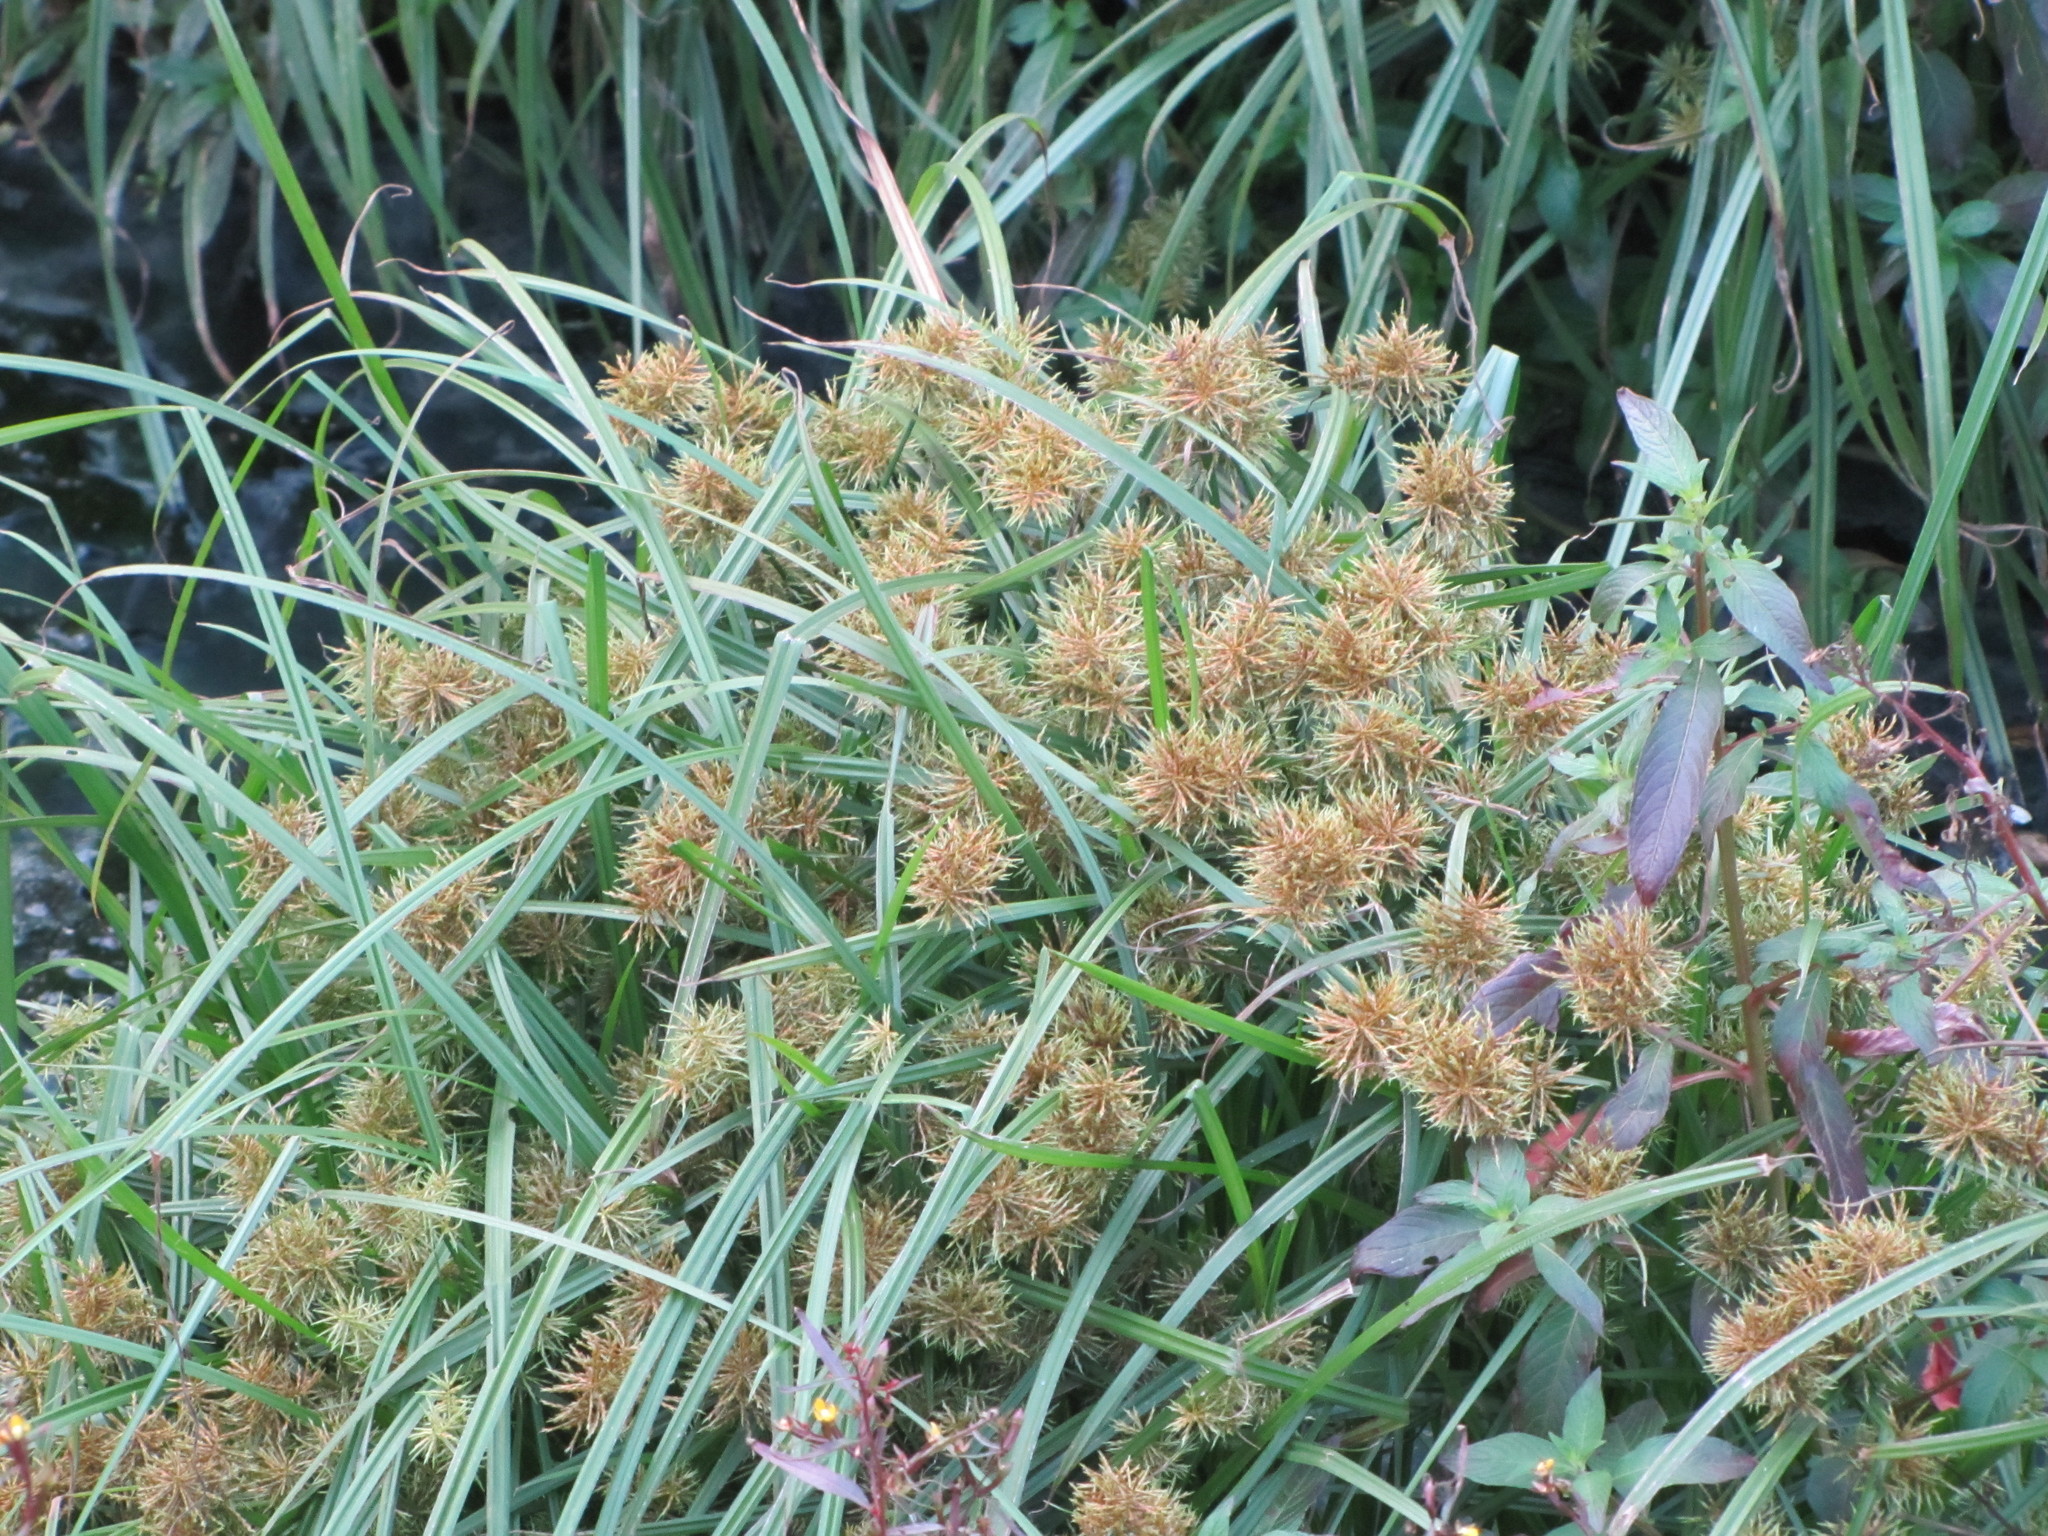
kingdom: Plantae
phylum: Tracheophyta
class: Liliopsida
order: Poales
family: Cyperaceae
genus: Cyperus
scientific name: Cyperus odoratus
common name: Fragrant flatsedge
